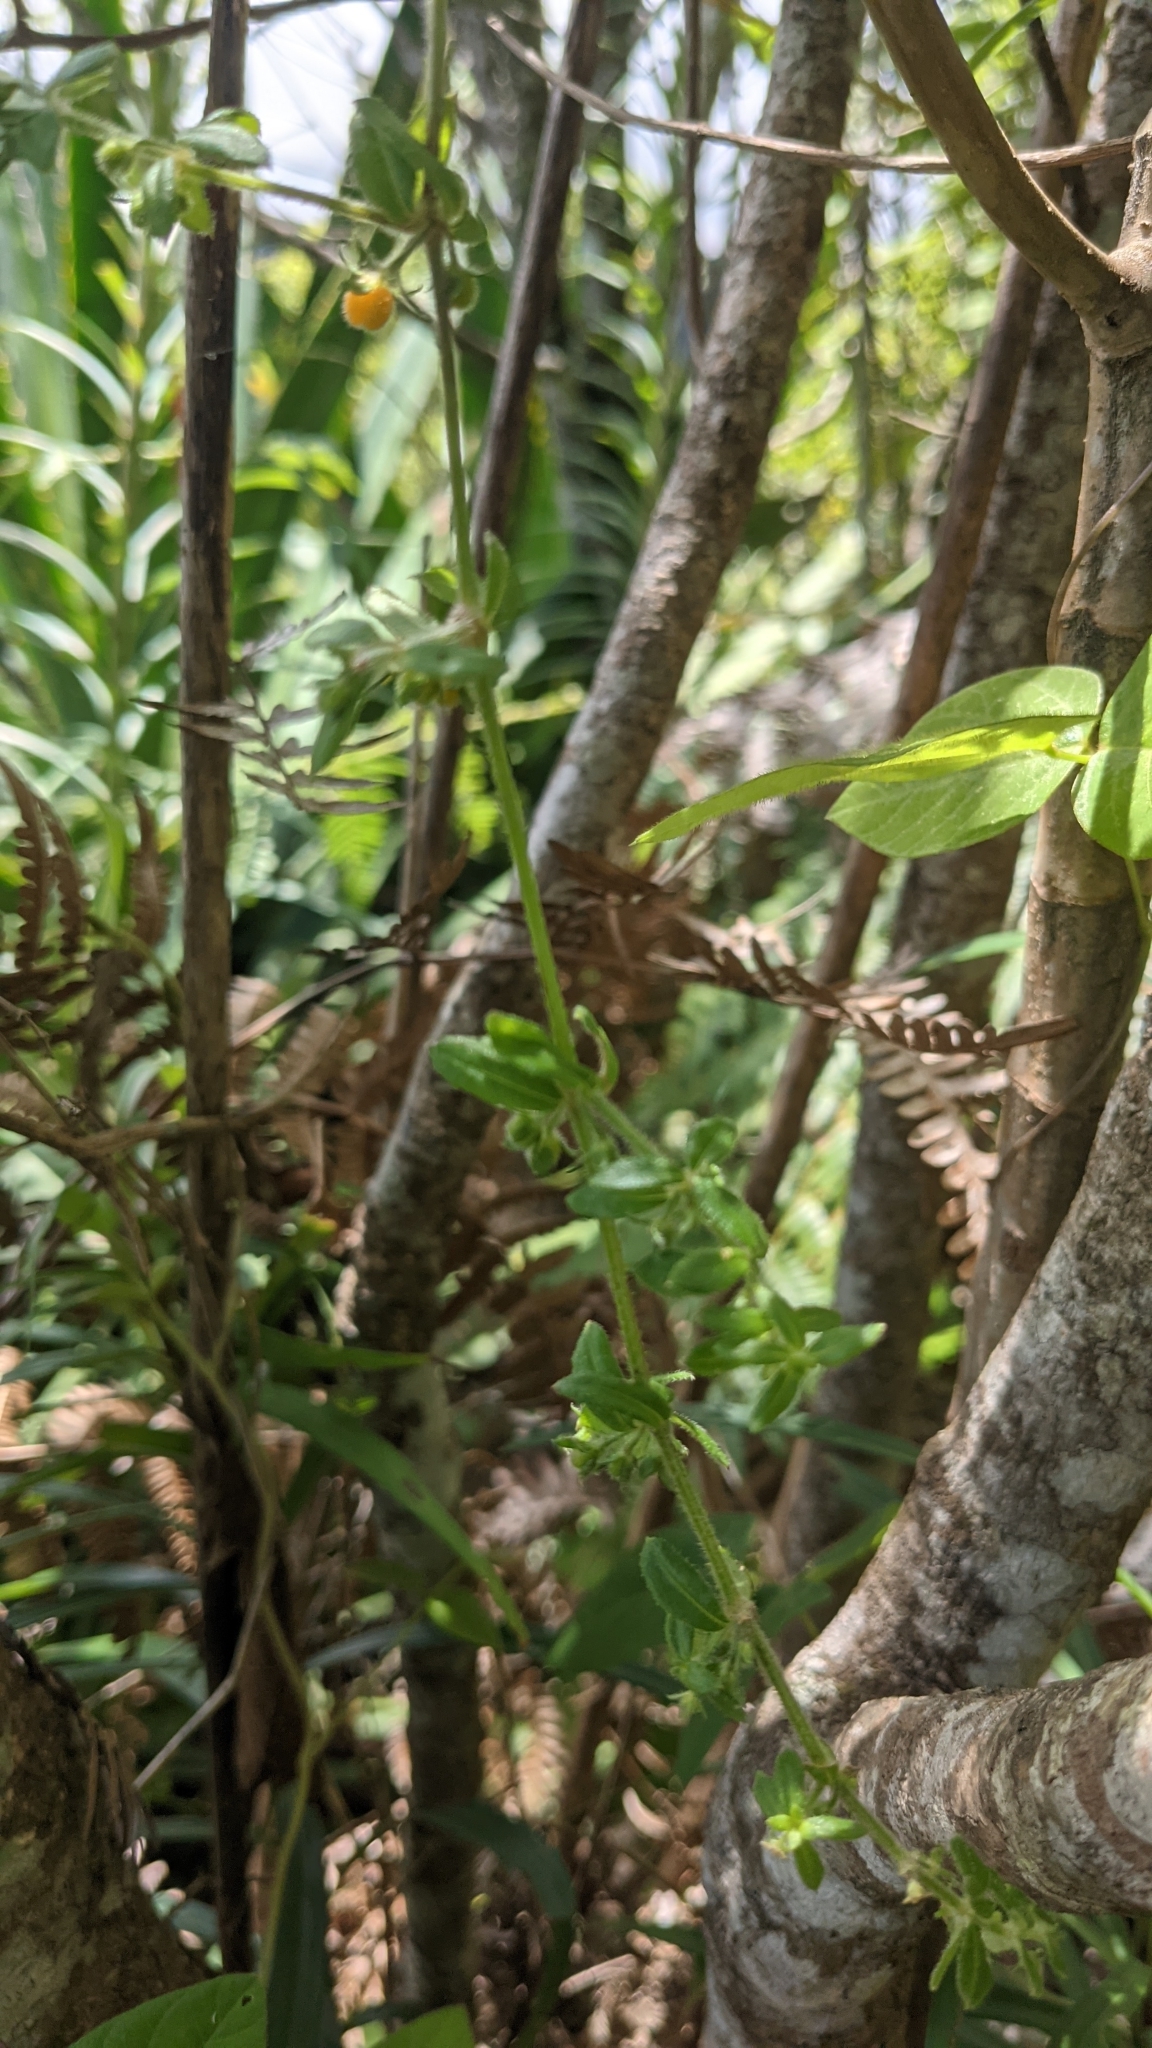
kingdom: Plantae
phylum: Tracheophyta
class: Magnoliopsida
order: Gentianales
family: Rubiaceae
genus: Galium
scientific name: Galium hypocarpium
